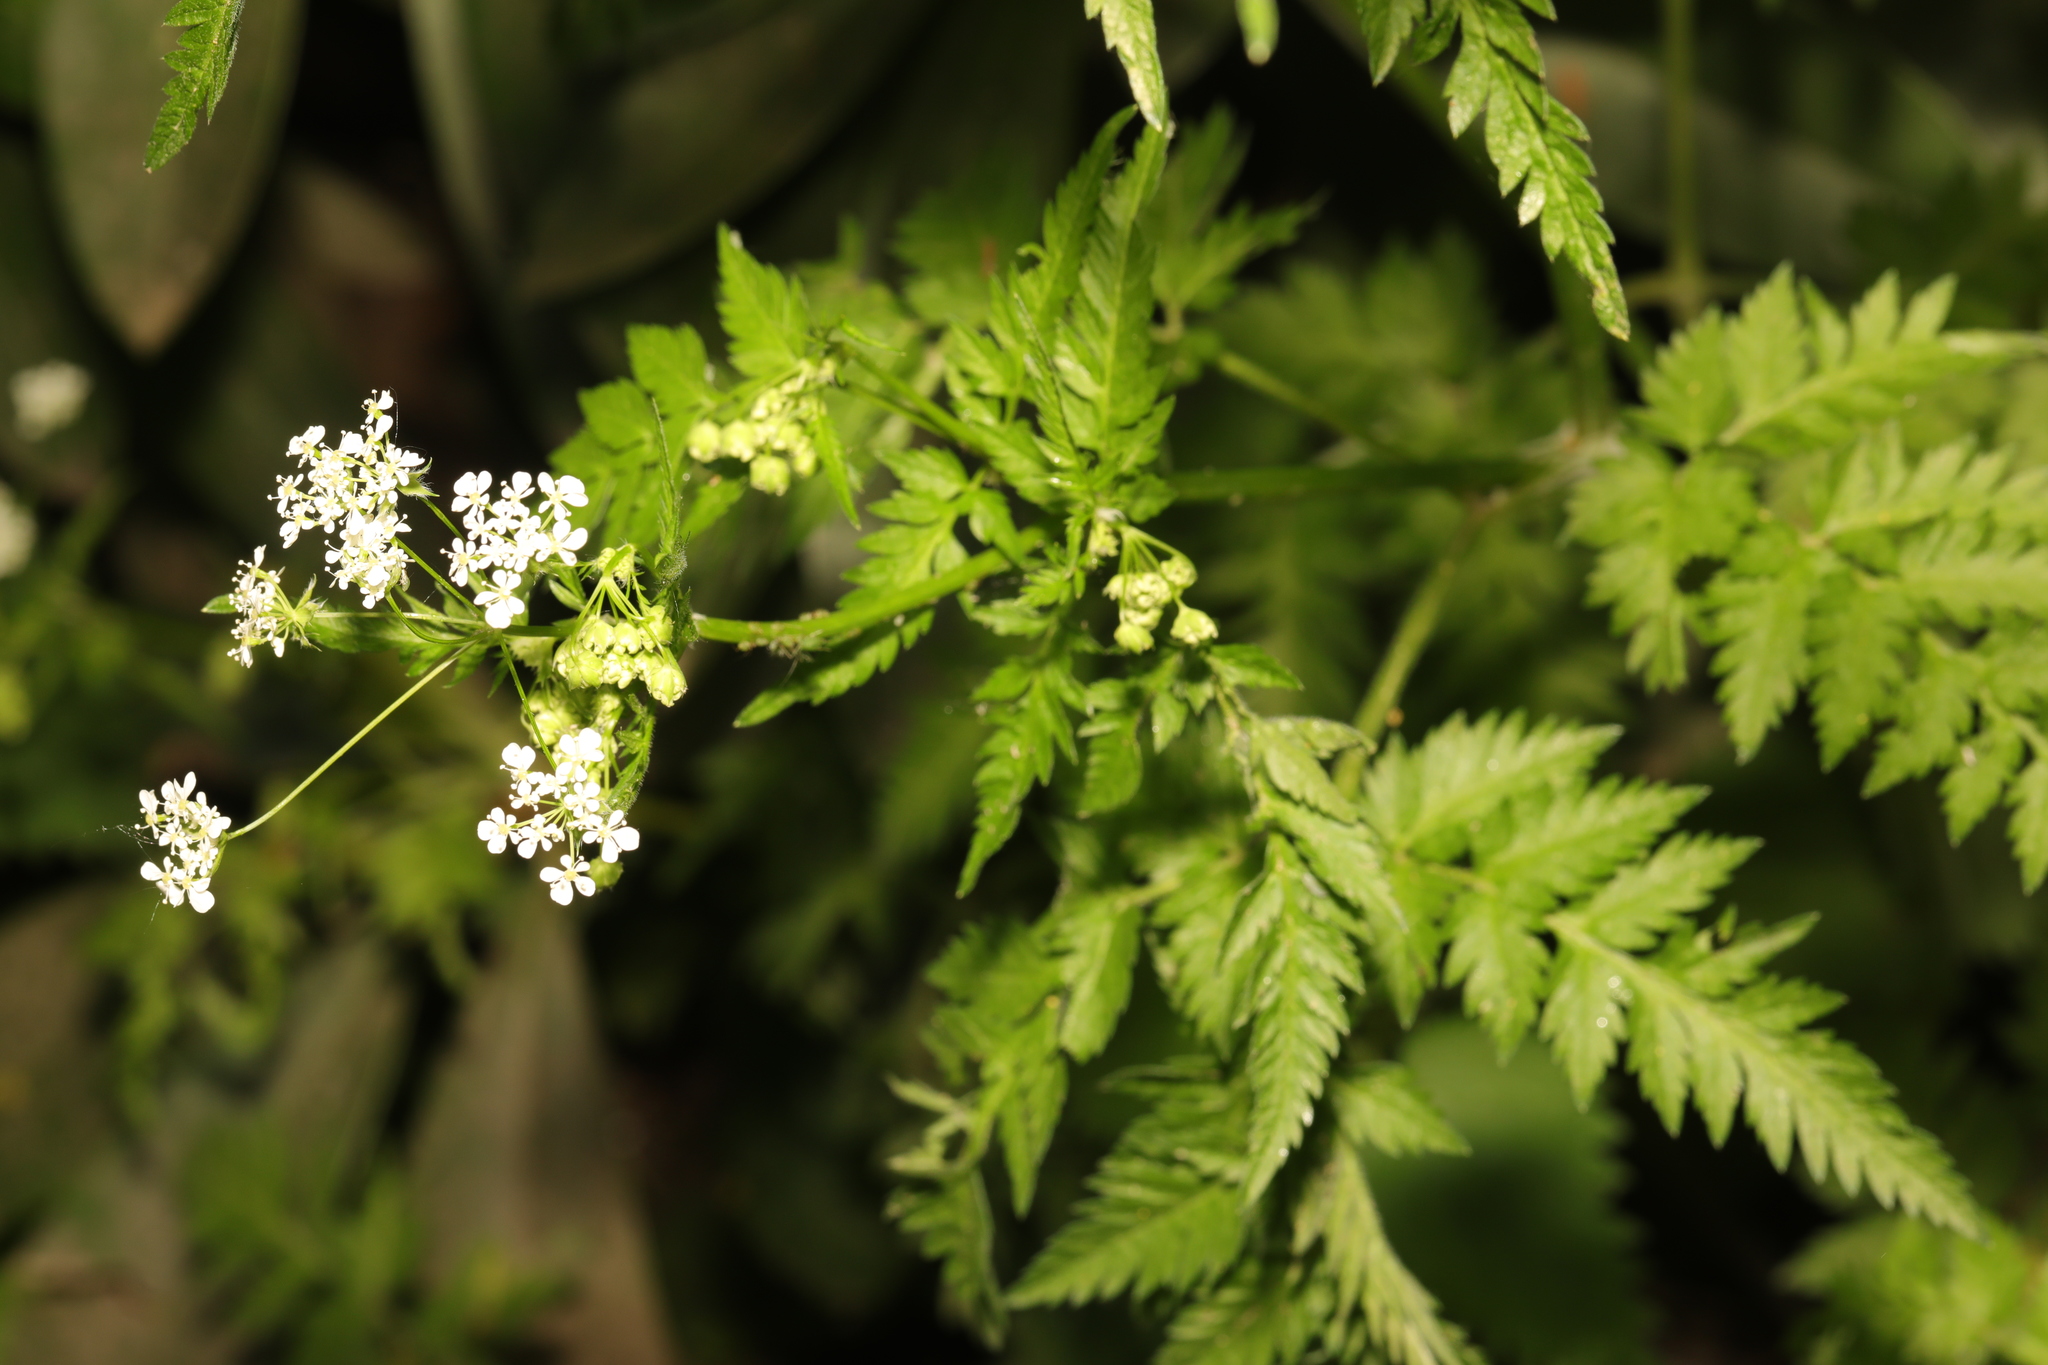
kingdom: Plantae
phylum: Tracheophyta
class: Magnoliopsida
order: Apiales
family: Apiaceae
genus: Anthriscus
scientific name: Anthriscus sylvestris
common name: Cow parsley
